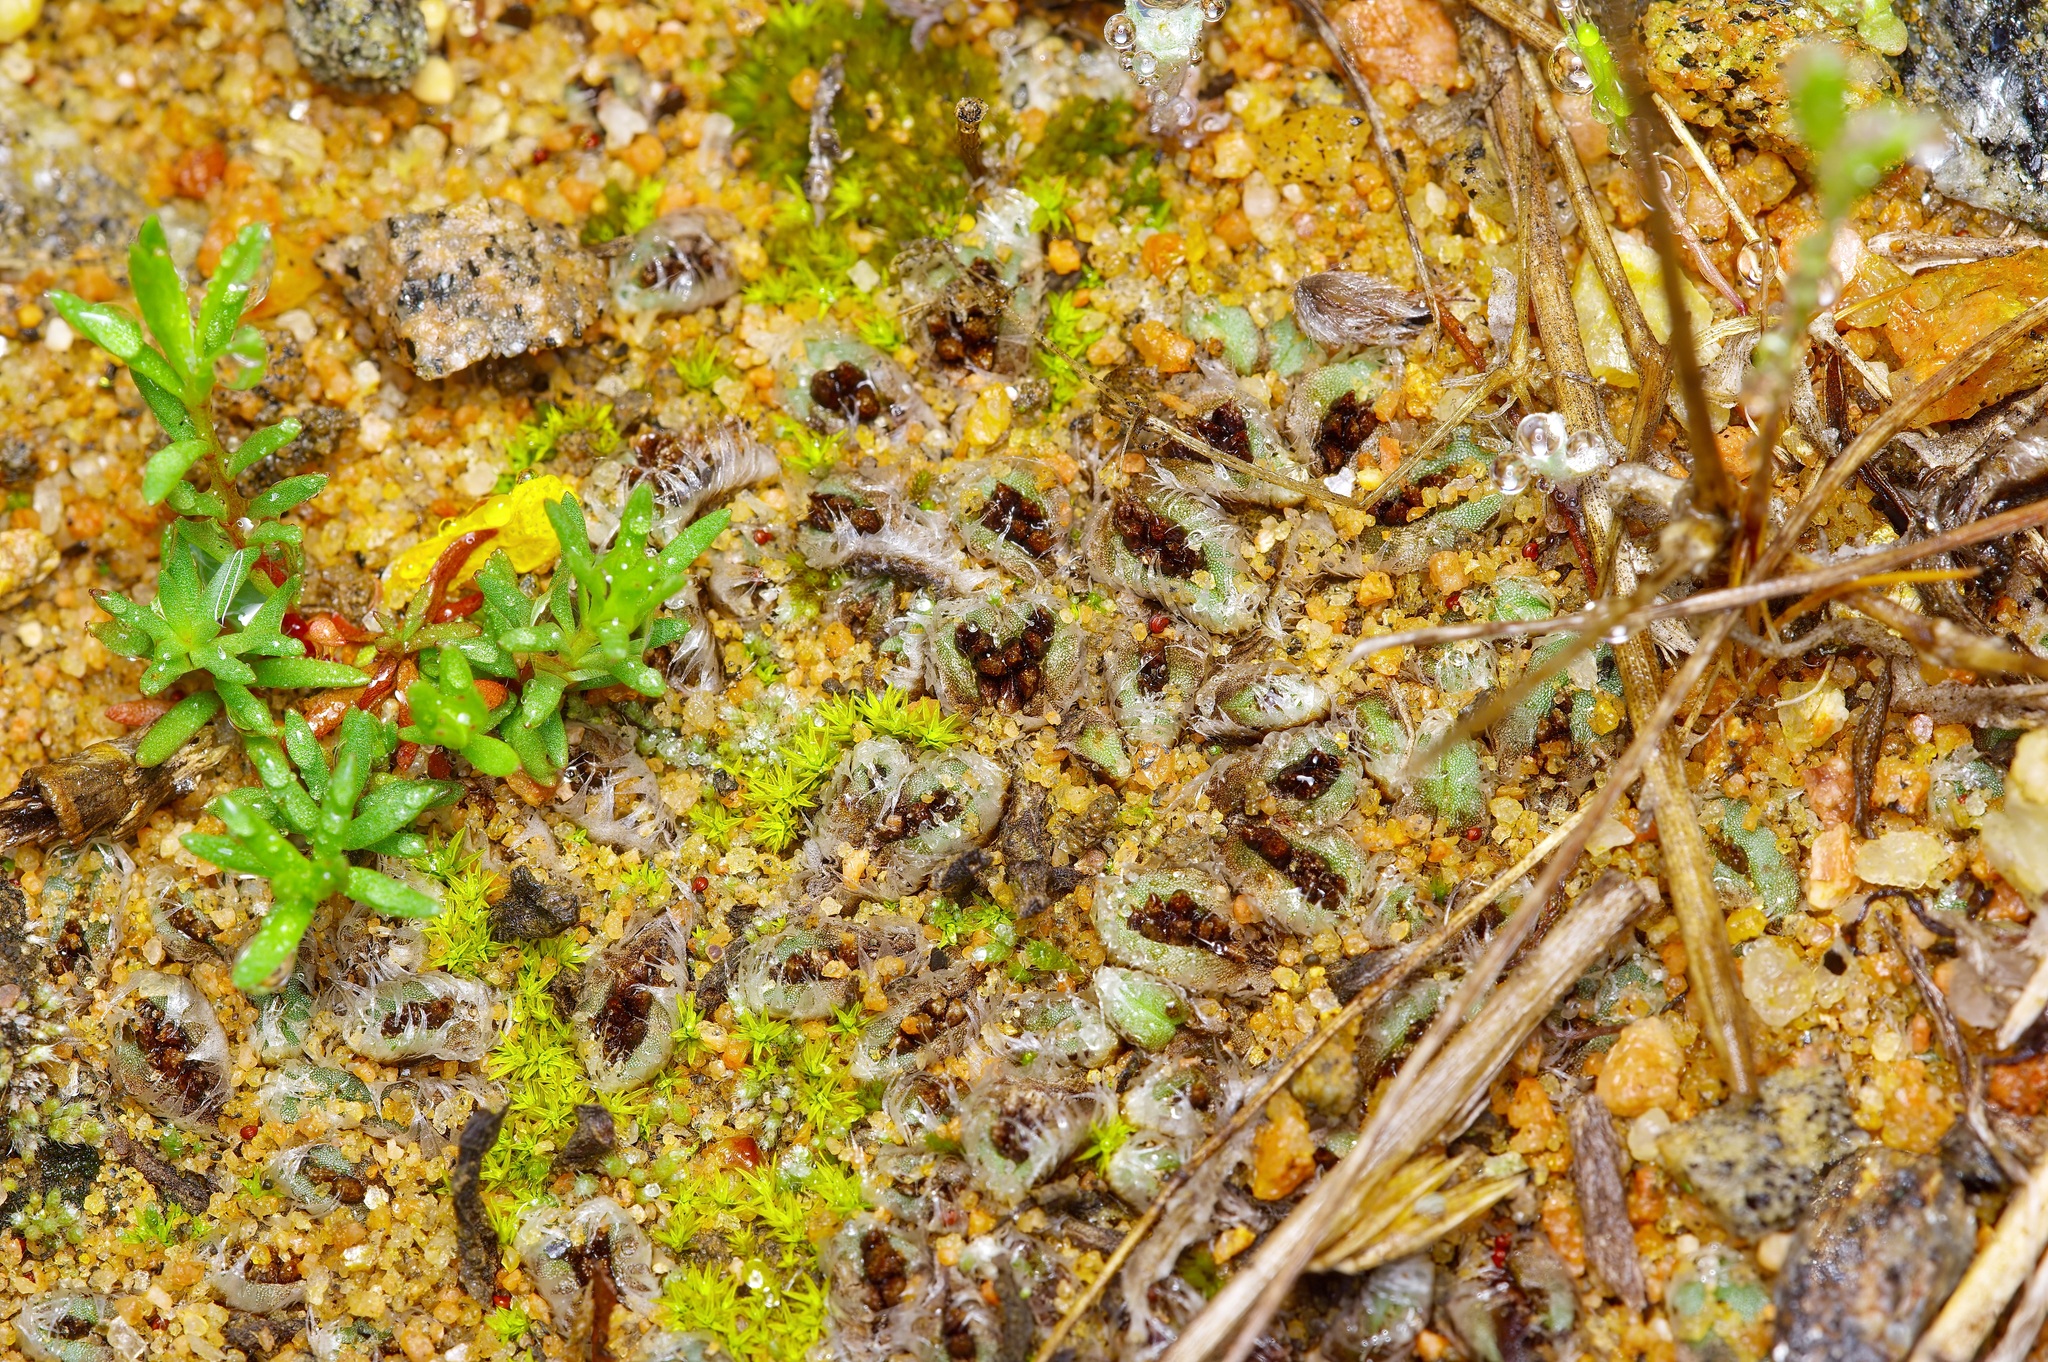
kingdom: Plantae
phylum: Marchantiophyta
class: Marchantiopsida
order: Marchantiales
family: Ricciaceae
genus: Oxymitra
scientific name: Oxymitra incrassata
